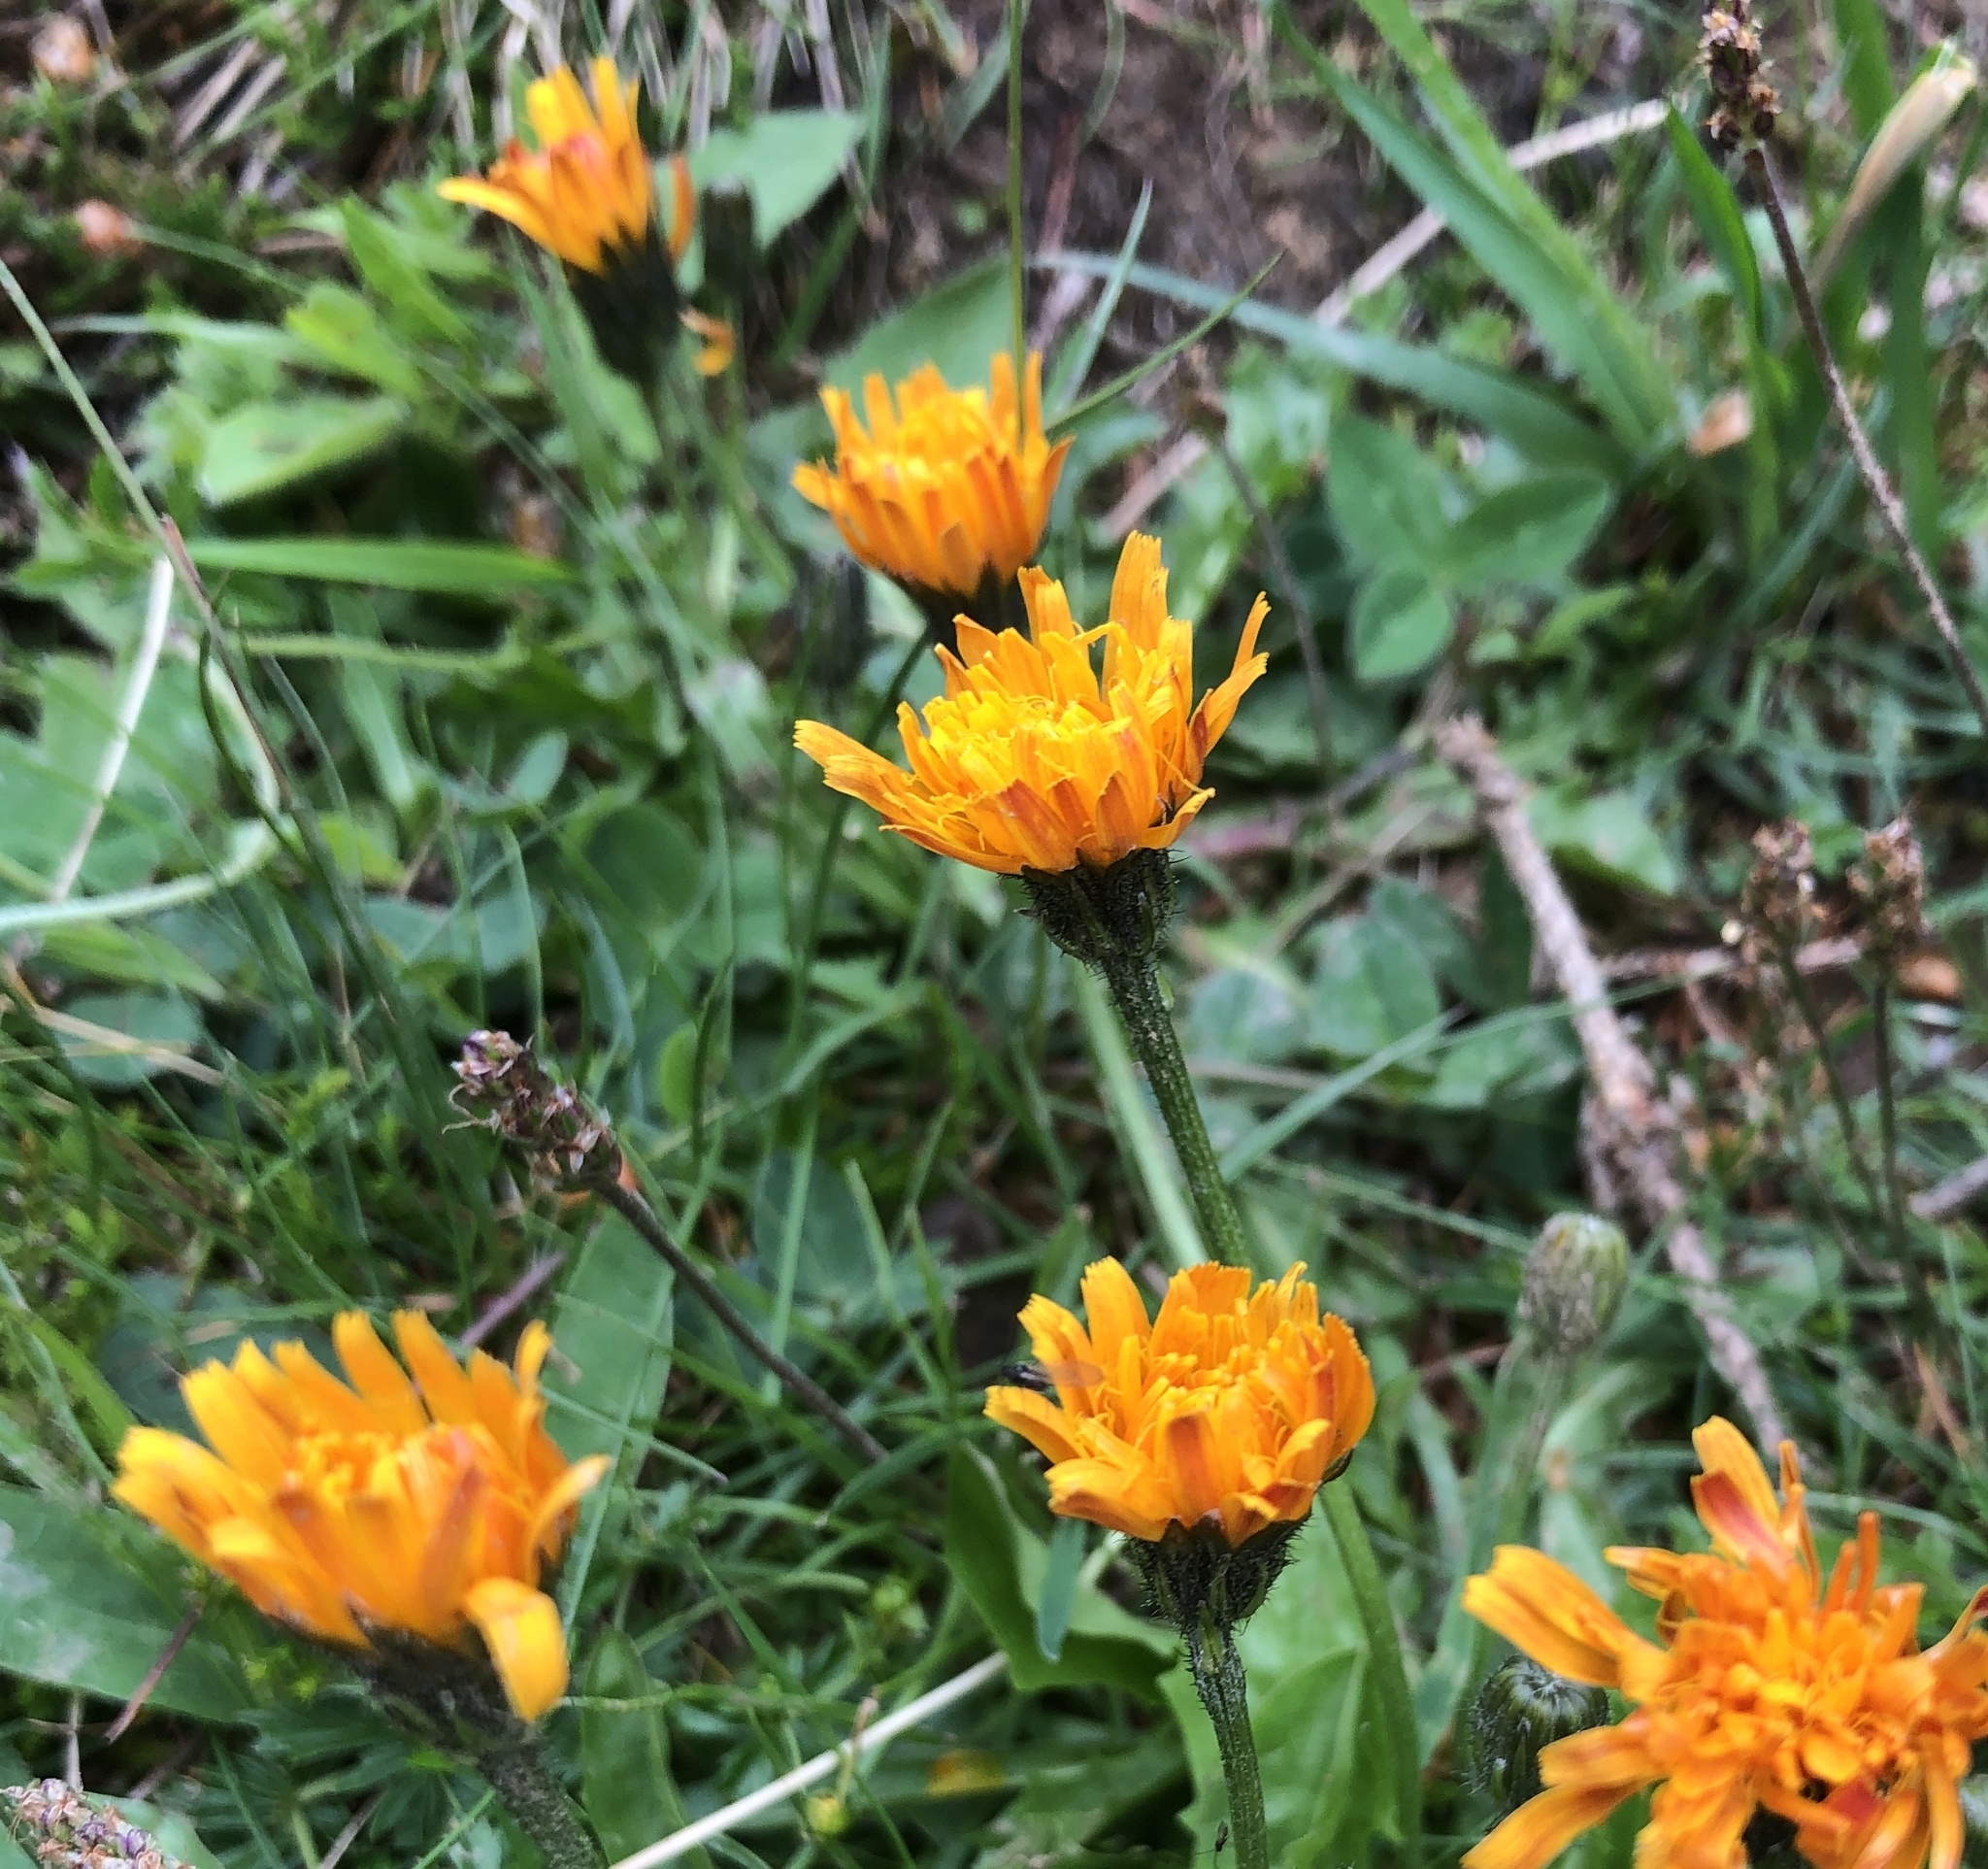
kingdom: Plantae
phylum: Tracheophyta
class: Magnoliopsida
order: Asterales
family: Asteraceae
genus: Crepis
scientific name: Crepis aurea
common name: Golden hawk's-beard
